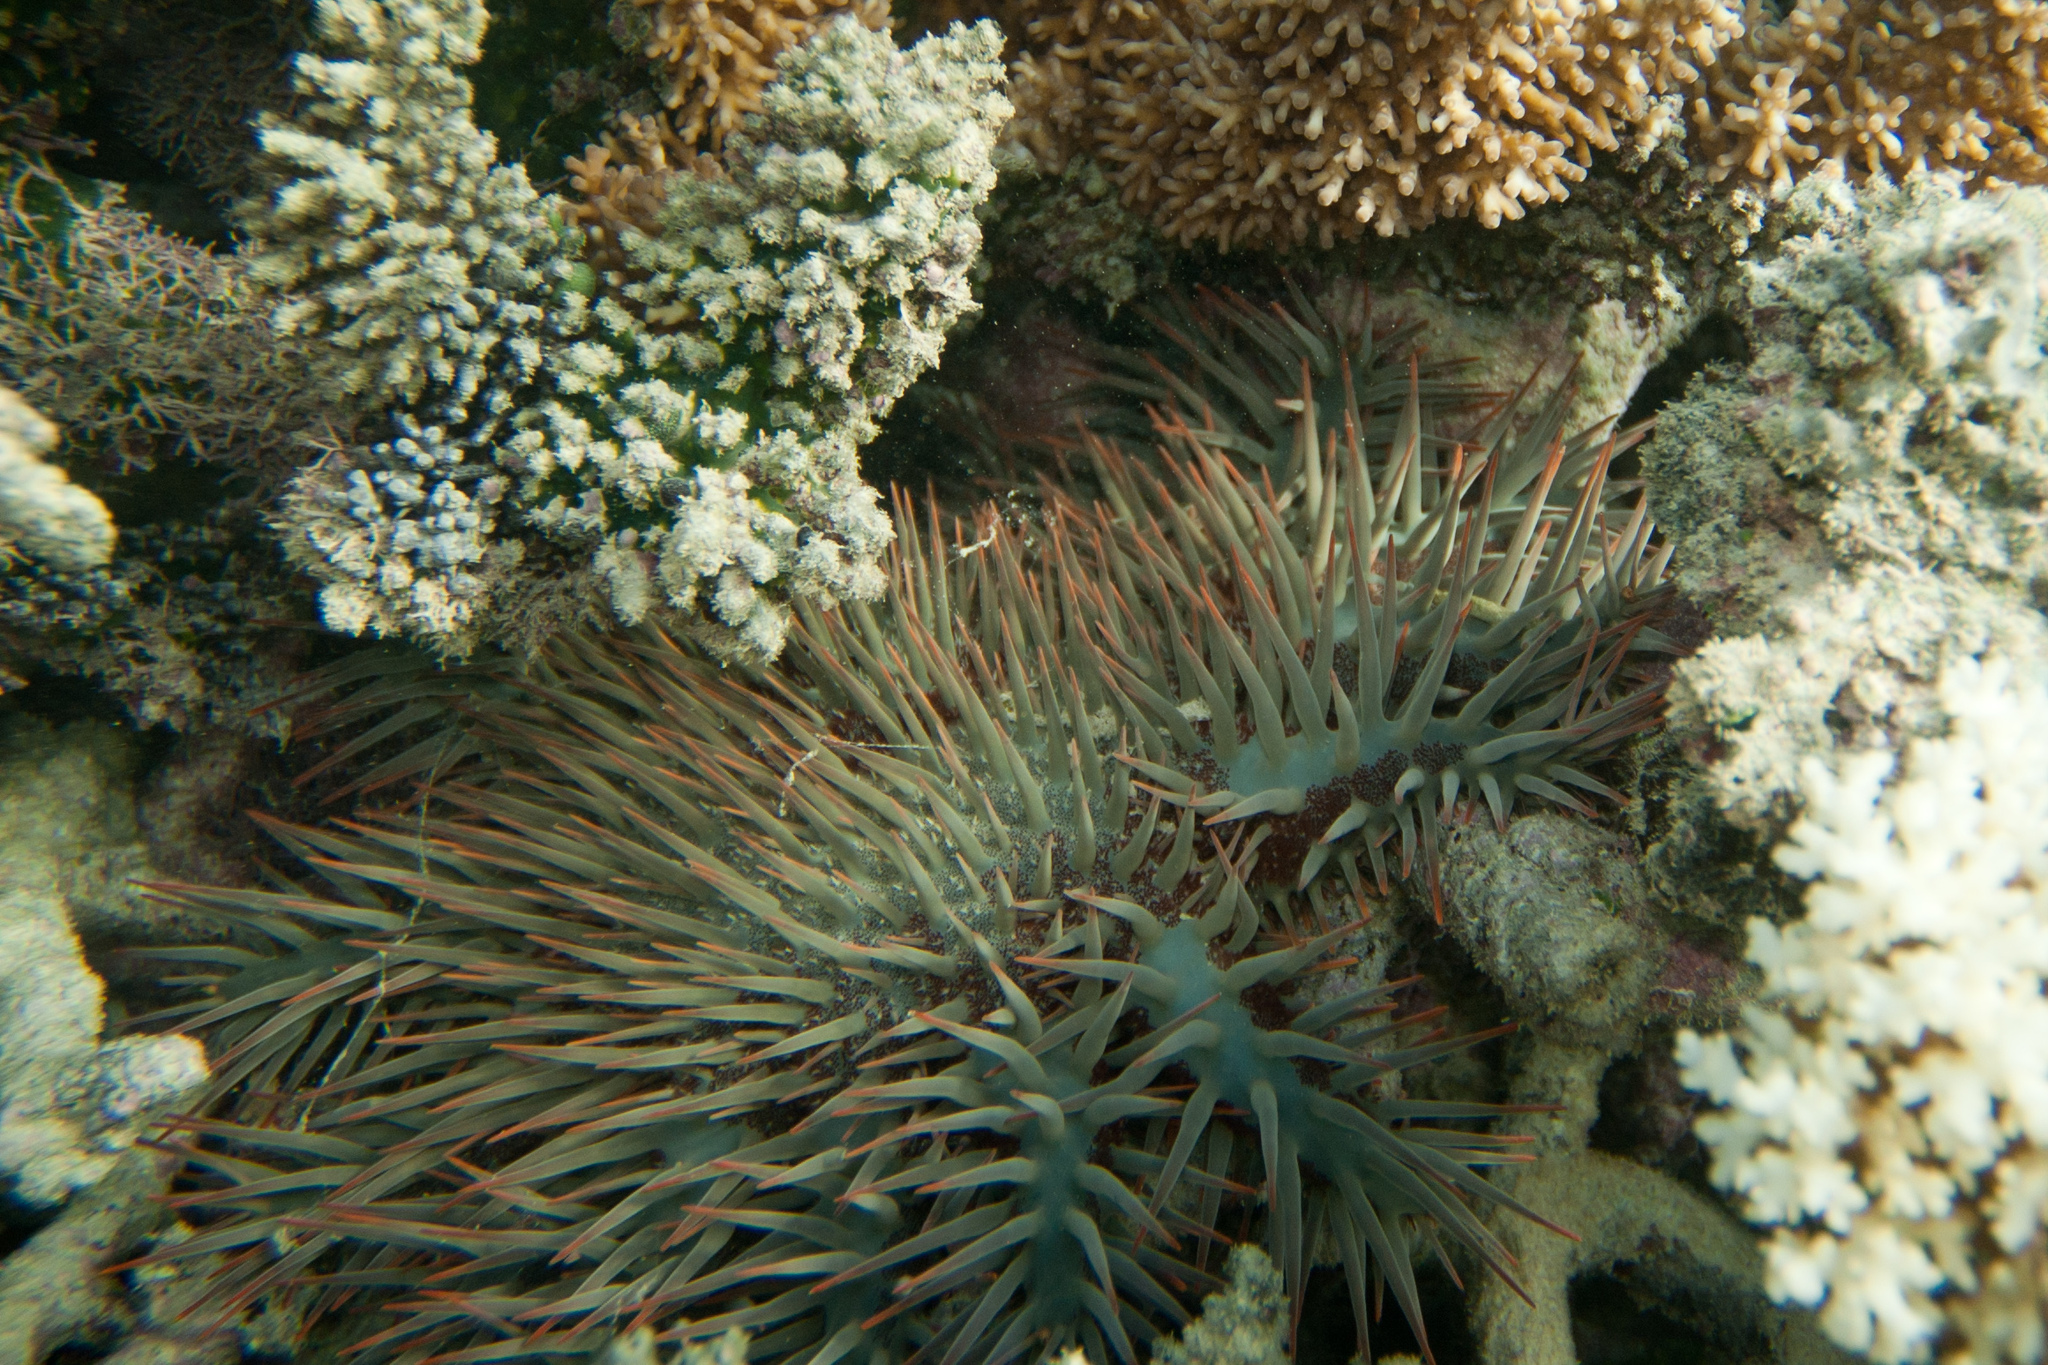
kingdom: Animalia
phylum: Echinodermata
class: Asteroidea
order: Valvatida
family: Acanthasteridae
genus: Acanthaster
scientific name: Acanthaster planci
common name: Crown-of-thorns
